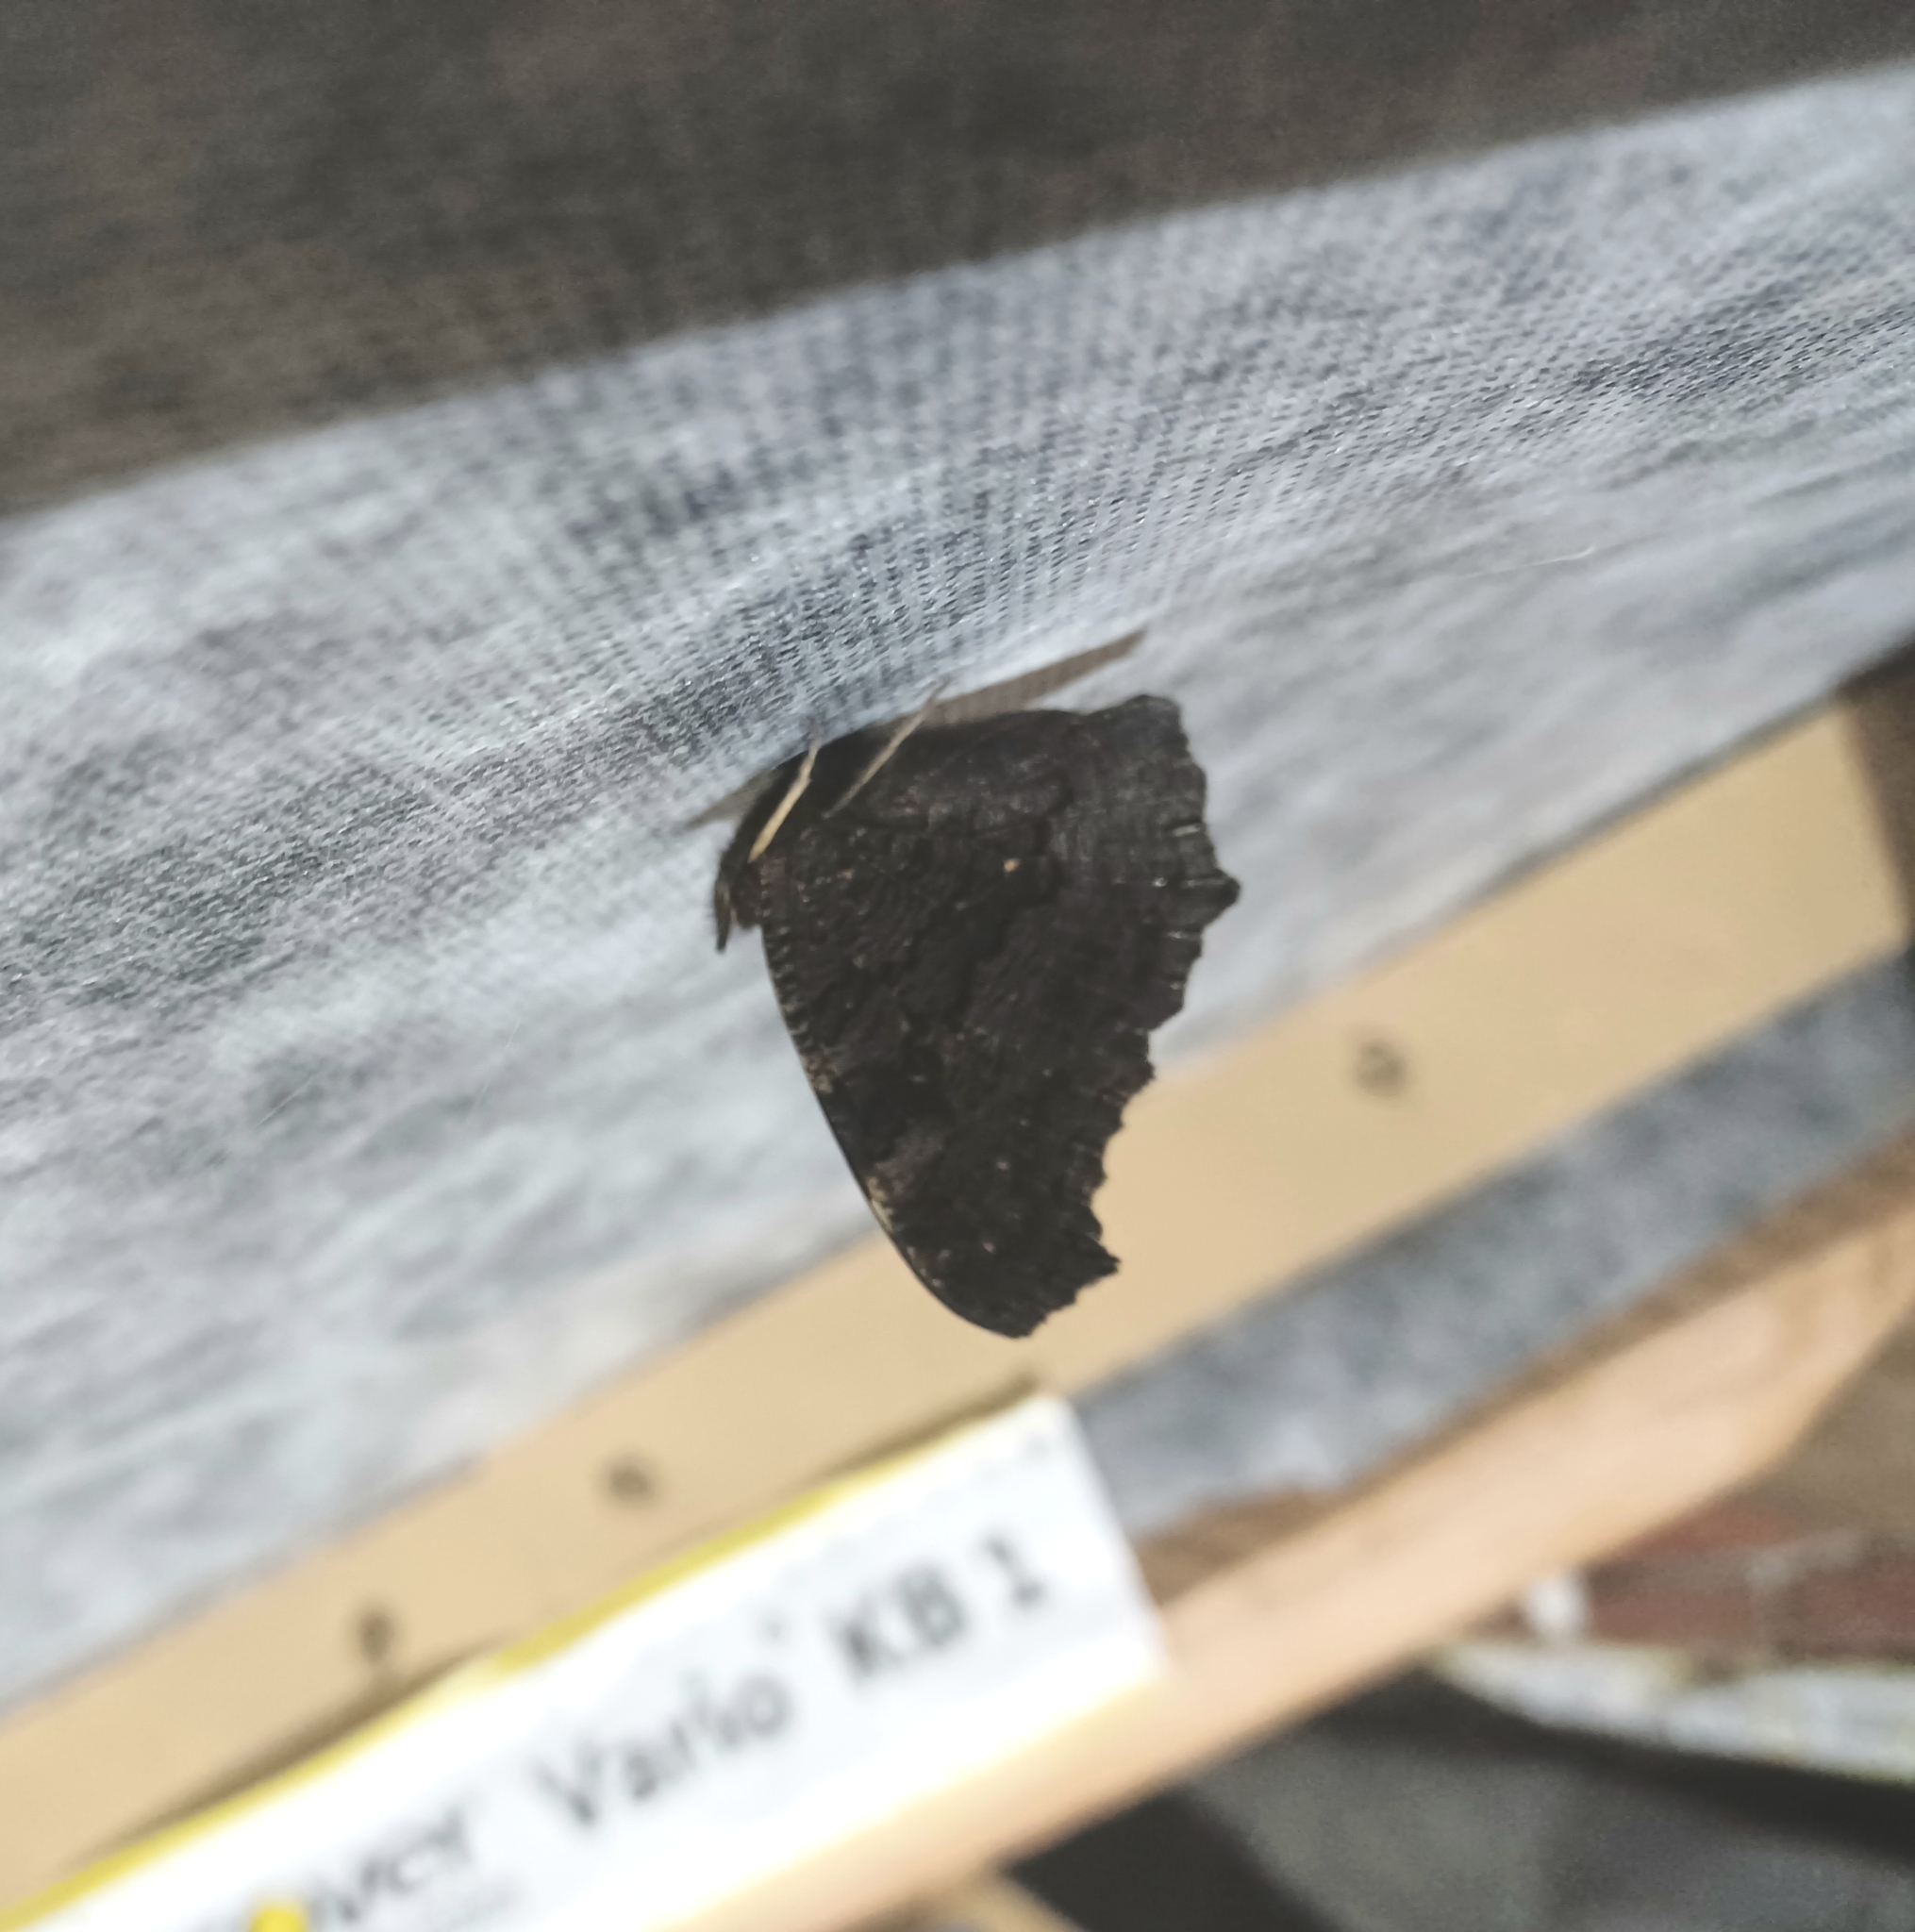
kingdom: Animalia
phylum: Arthropoda
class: Insecta
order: Lepidoptera
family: Nymphalidae
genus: Aglais
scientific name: Aglais io
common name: Peacock
